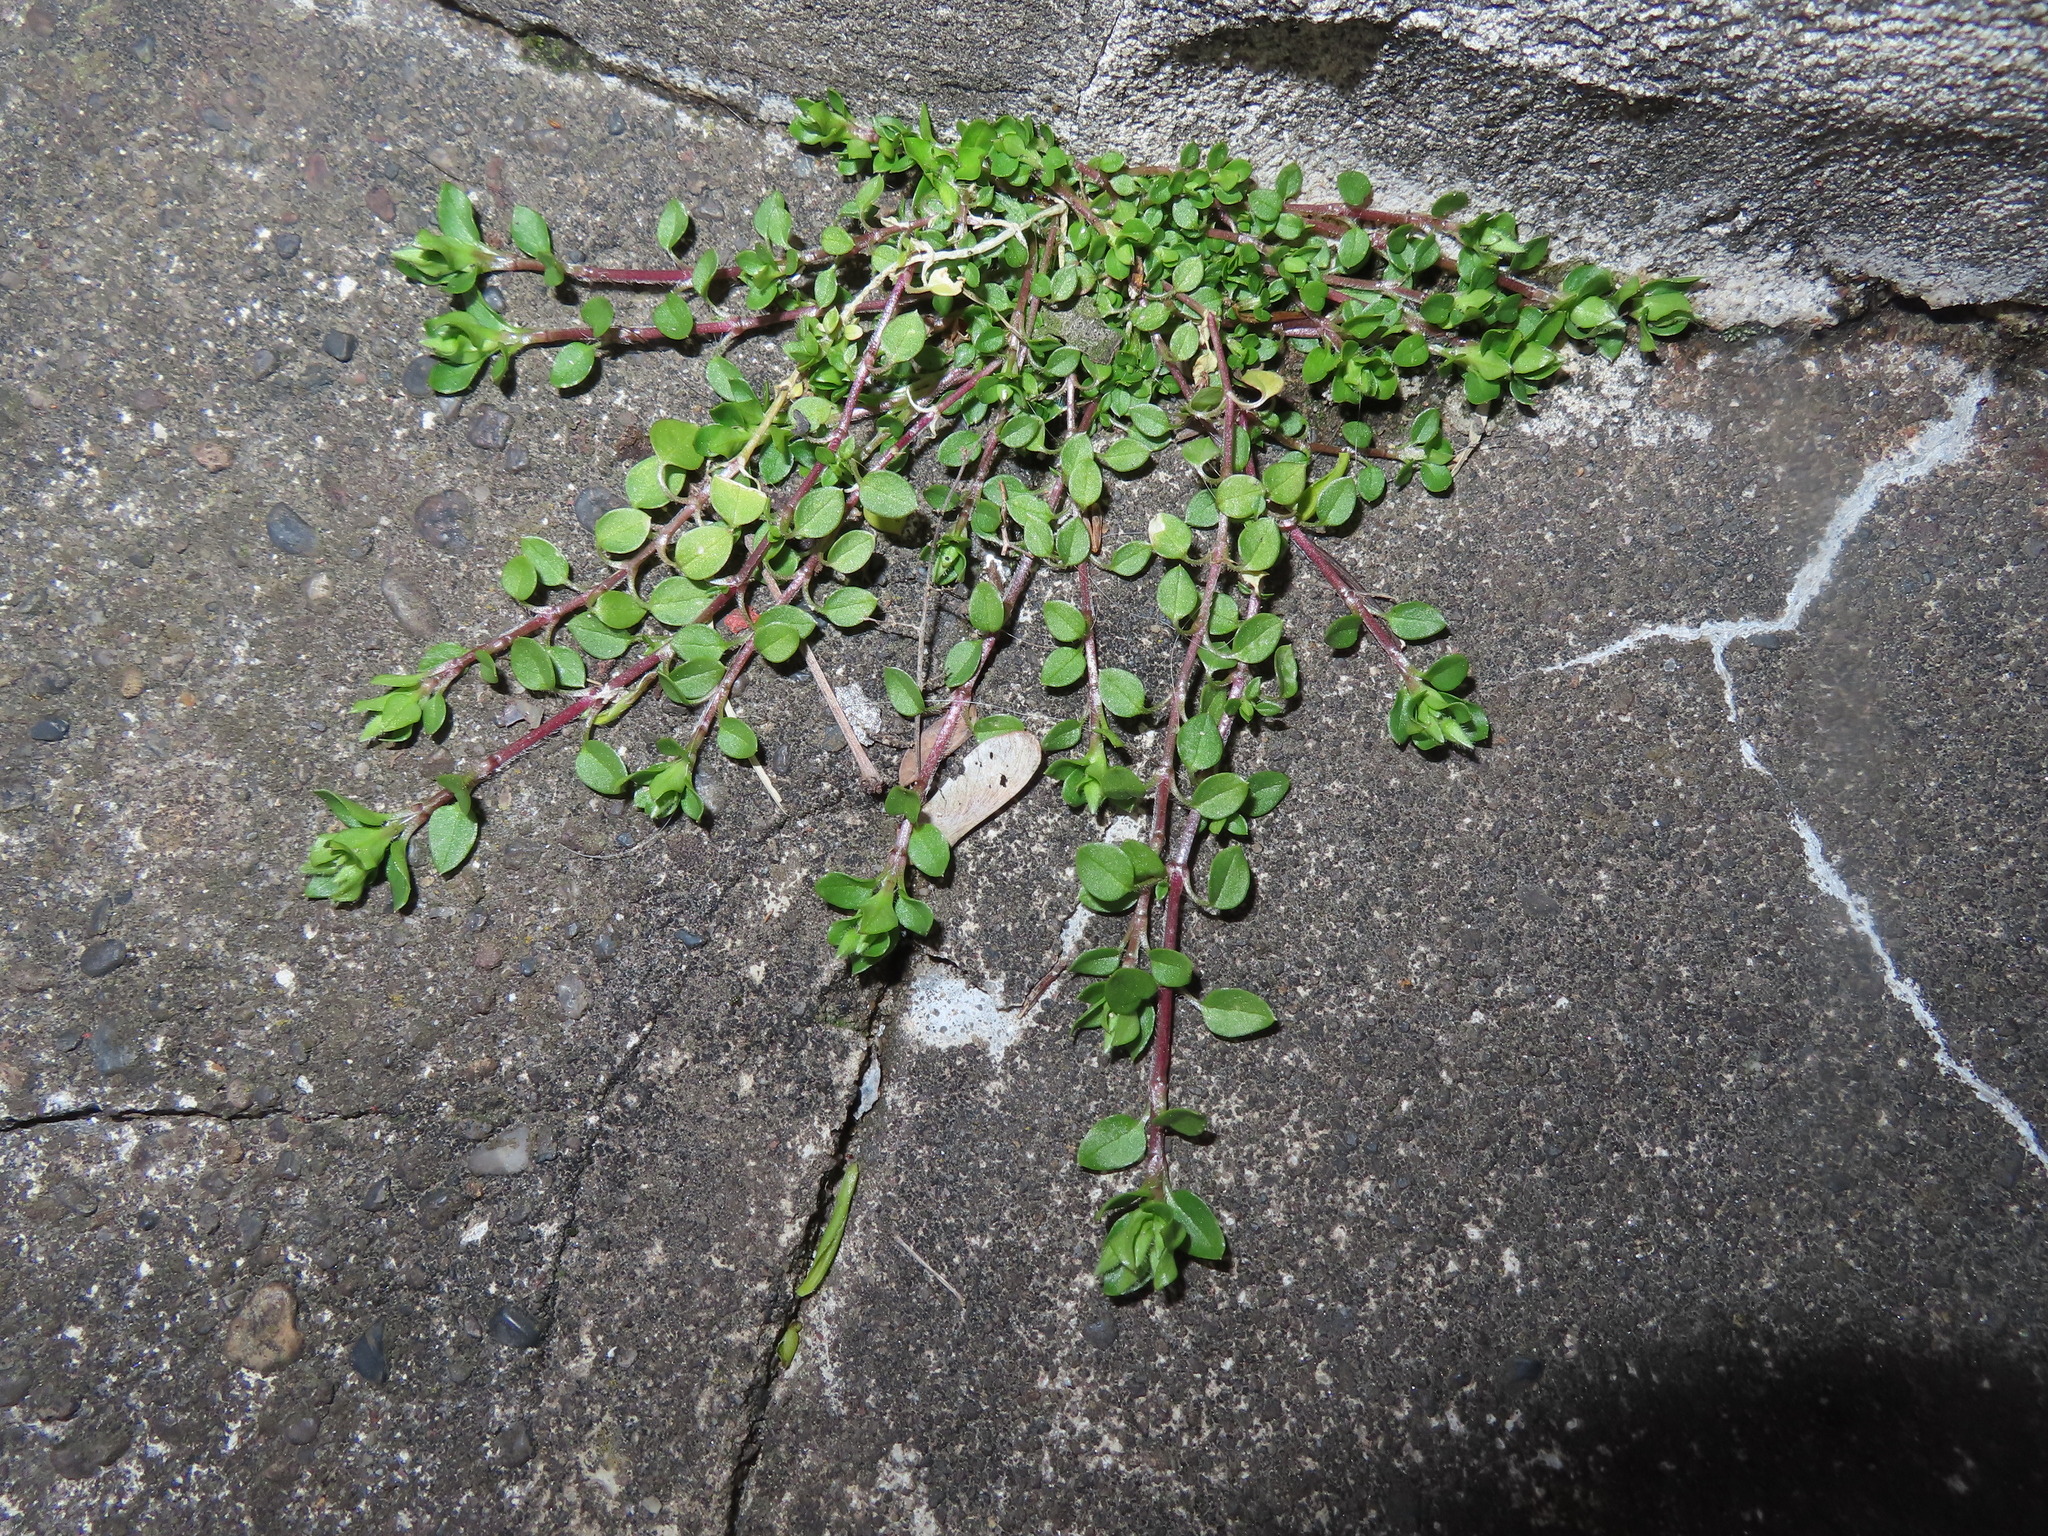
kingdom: Plantae
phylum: Tracheophyta
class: Magnoliopsida
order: Caryophyllales
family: Caryophyllaceae
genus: Stellaria
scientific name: Stellaria media
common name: Common chickweed
